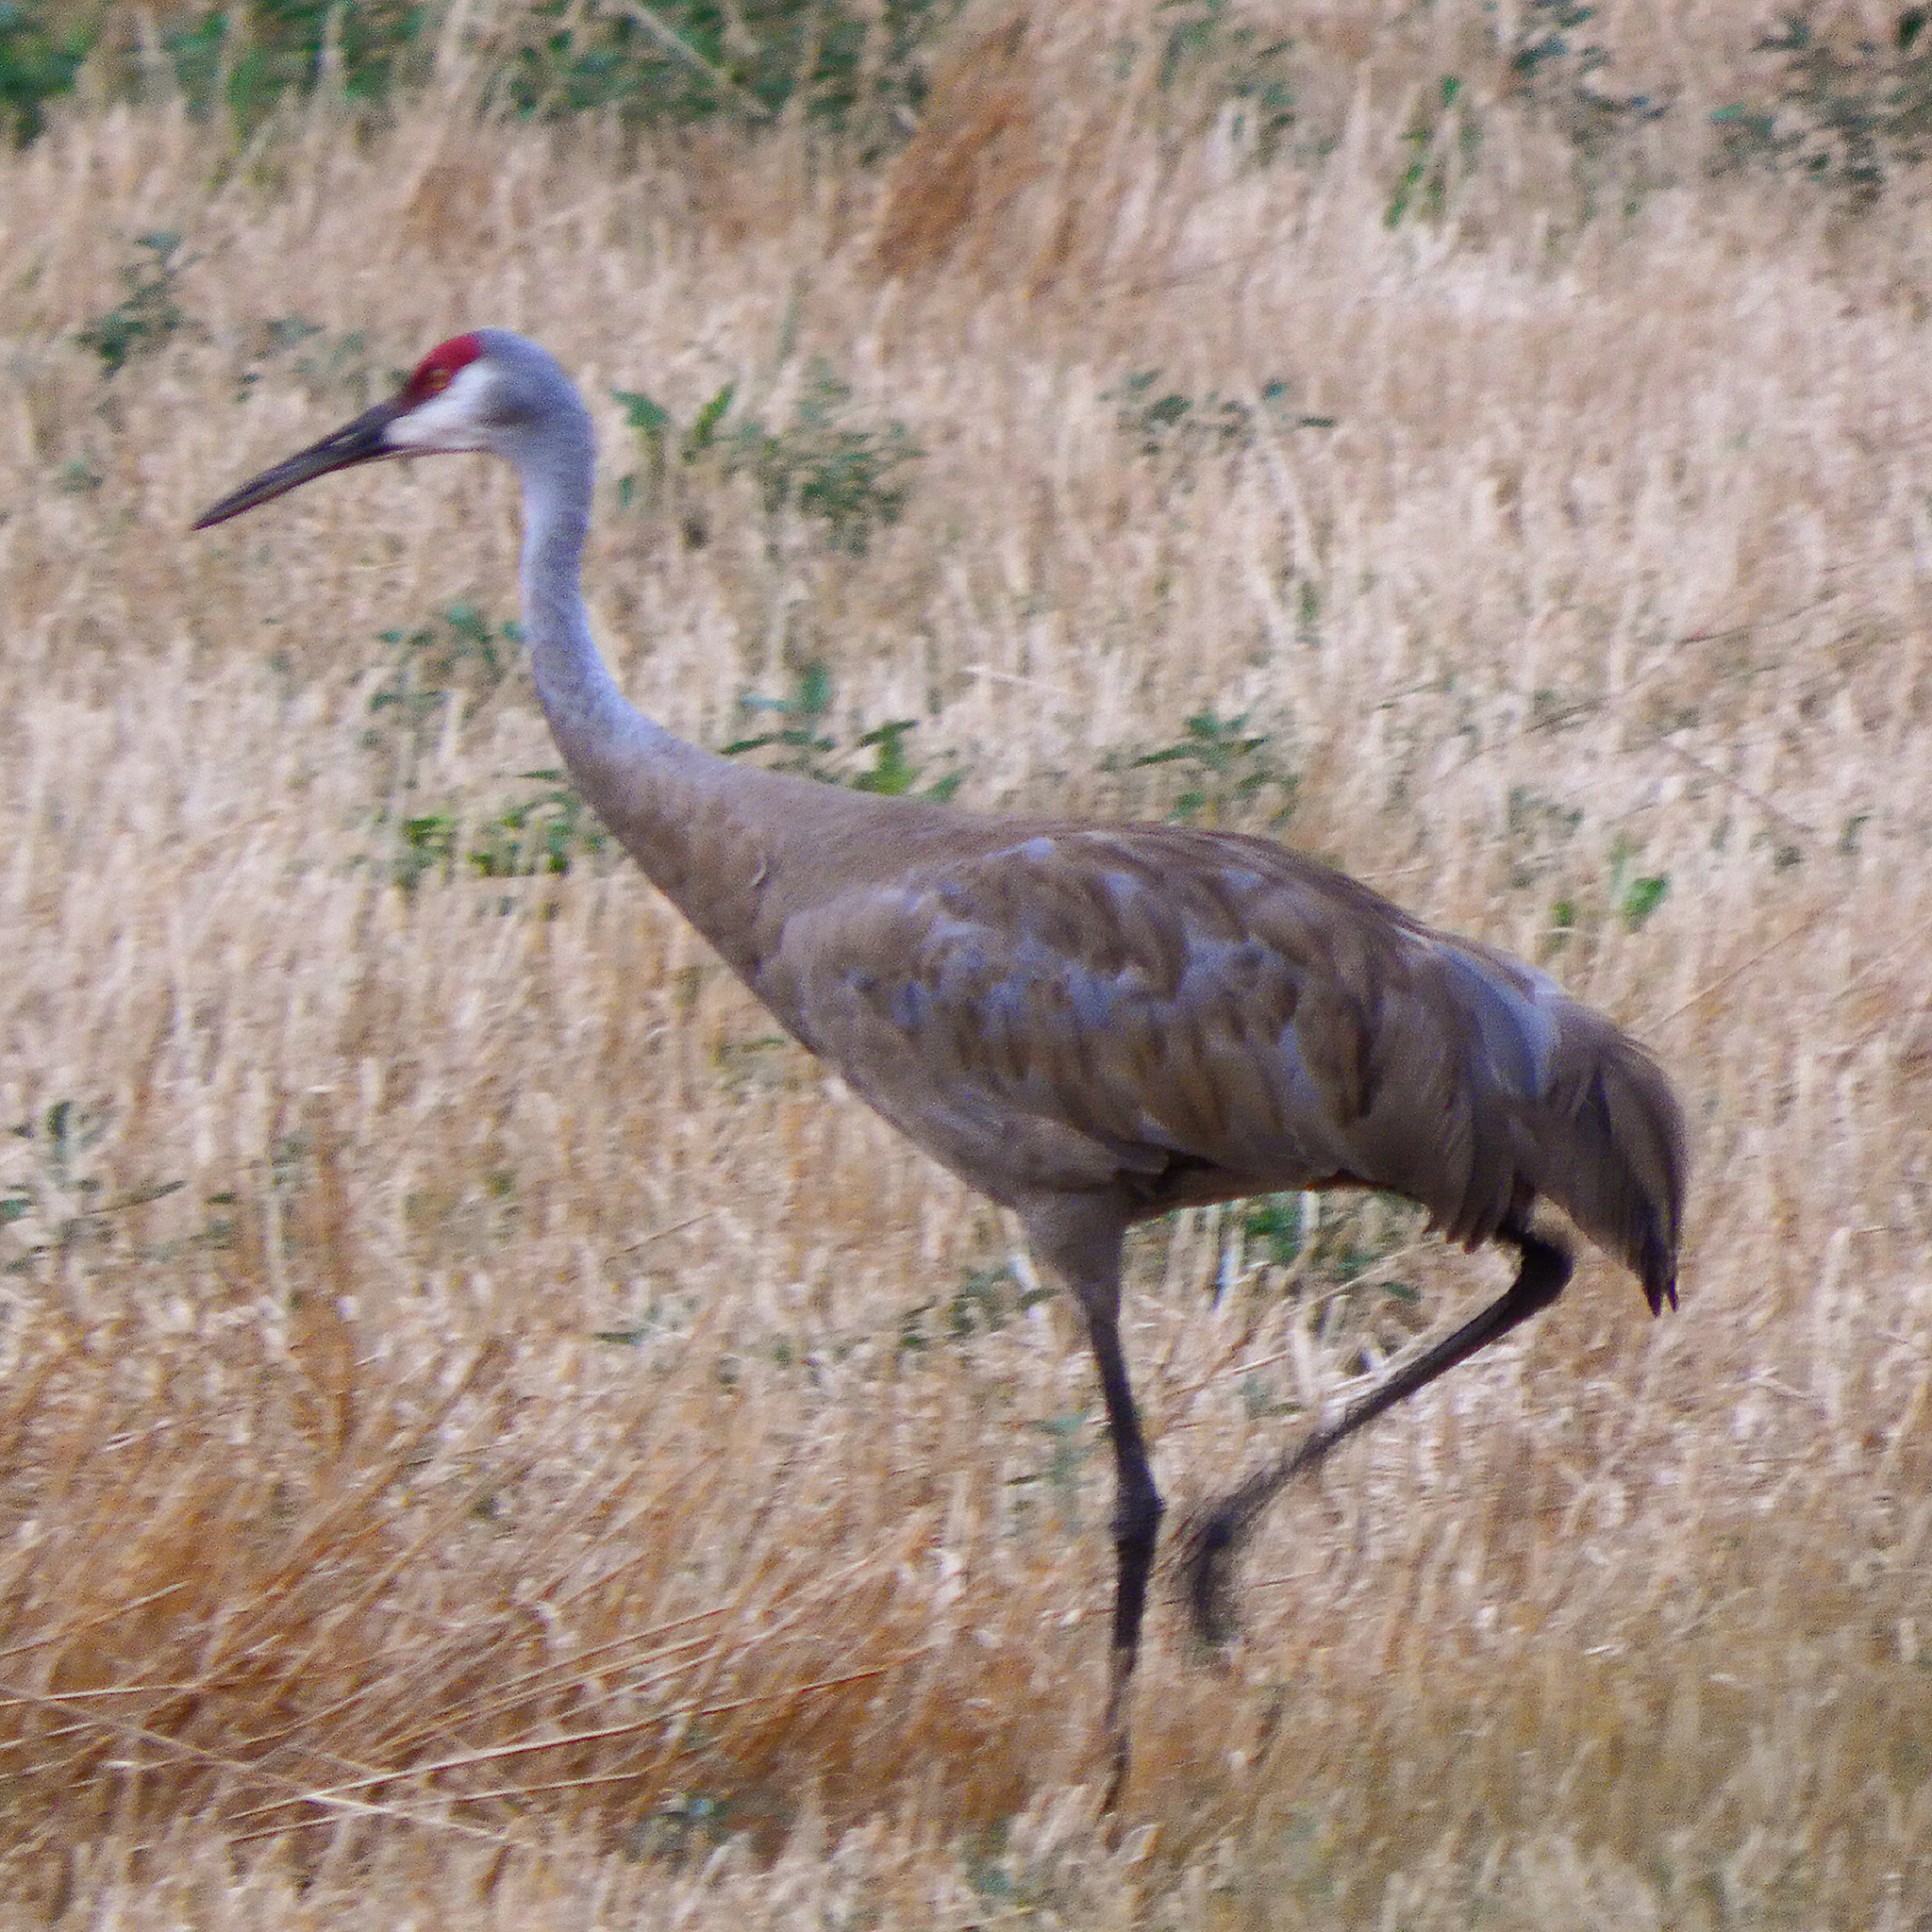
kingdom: Animalia
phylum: Chordata
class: Aves
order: Gruiformes
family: Gruidae
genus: Grus
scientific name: Grus canadensis
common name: Sandhill crane
